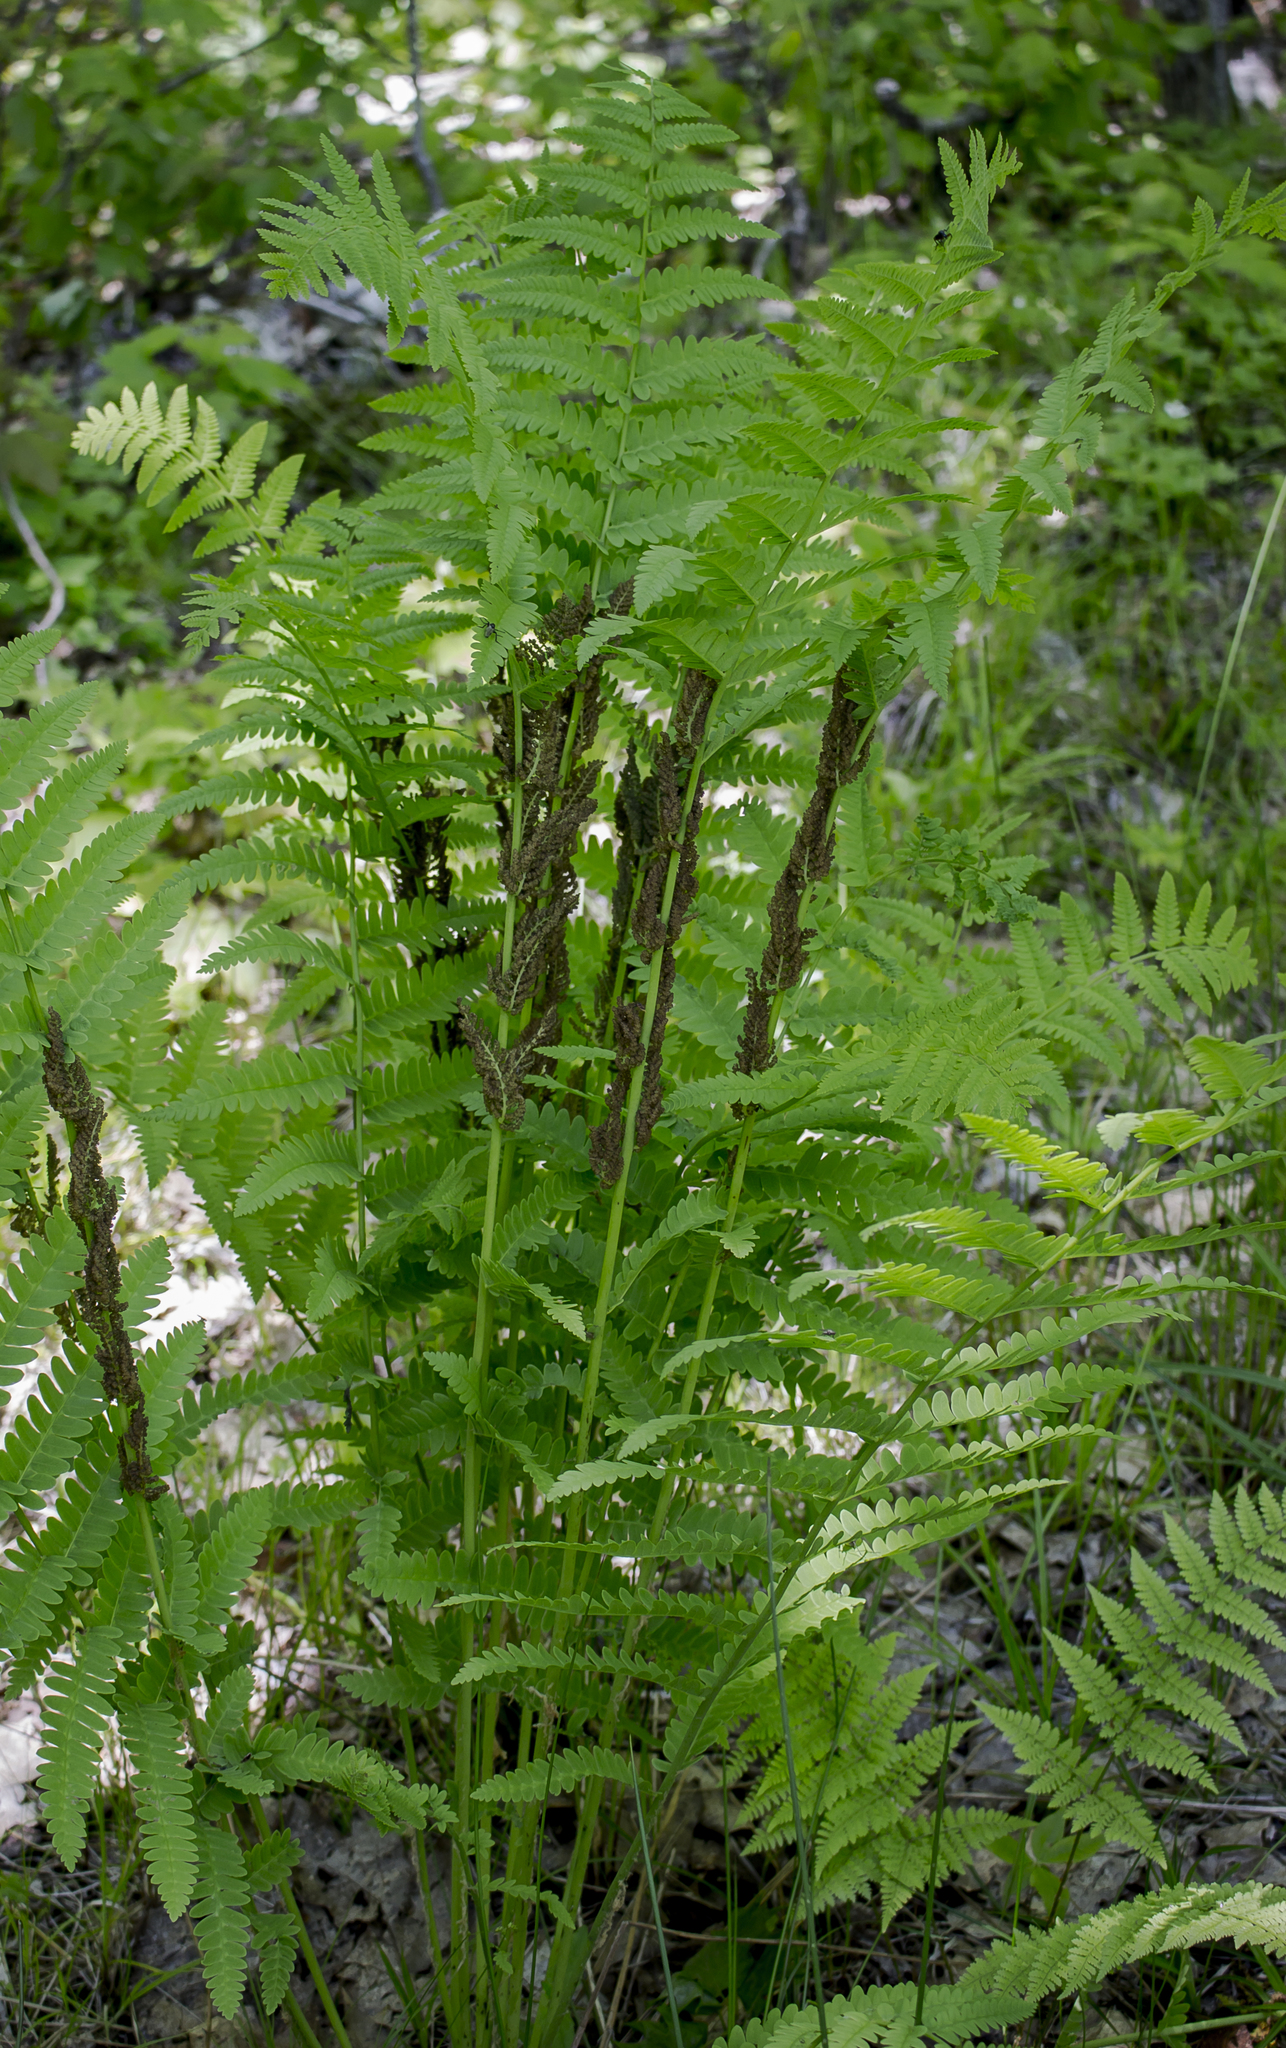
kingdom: Plantae
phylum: Tracheophyta
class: Polypodiopsida
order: Osmundales
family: Osmundaceae
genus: Claytosmunda
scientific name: Claytosmunda claytoniana
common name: Clayton's fern
